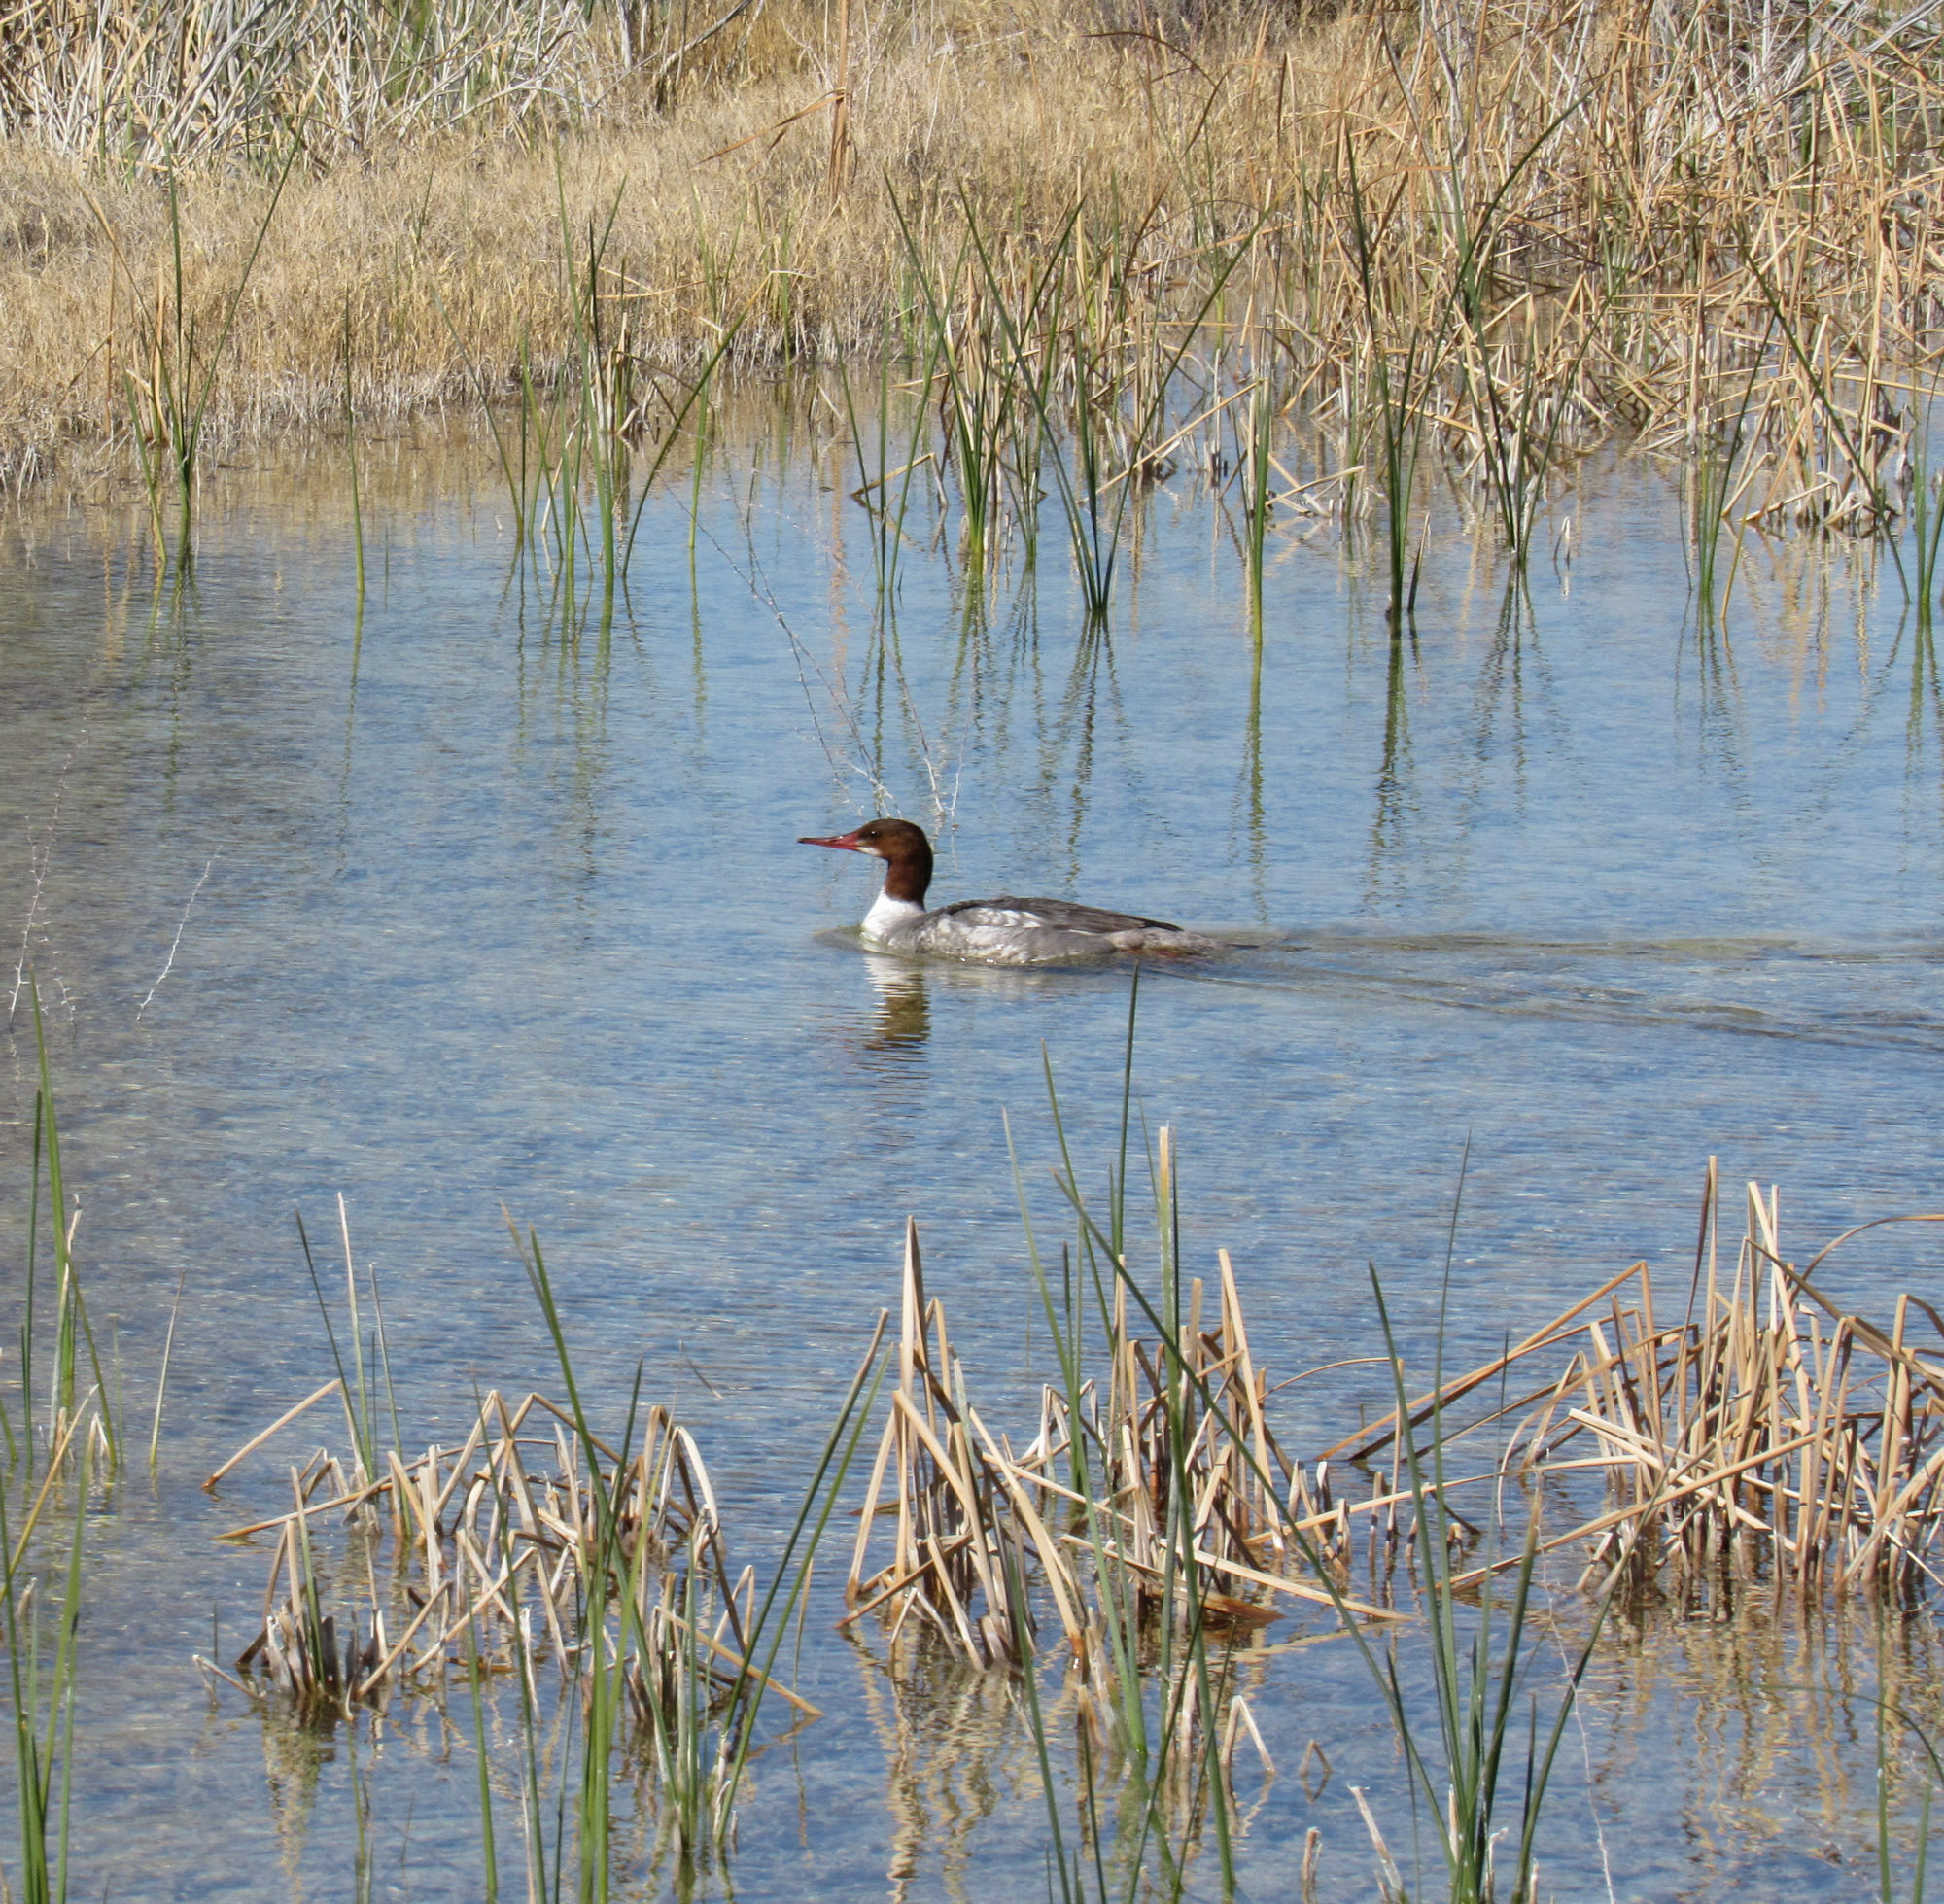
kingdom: Animalia
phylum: Chordata
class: Aves
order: Anseriformes
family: Anatidae
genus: Mergus
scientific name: Mergus merganser
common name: Common merganser
